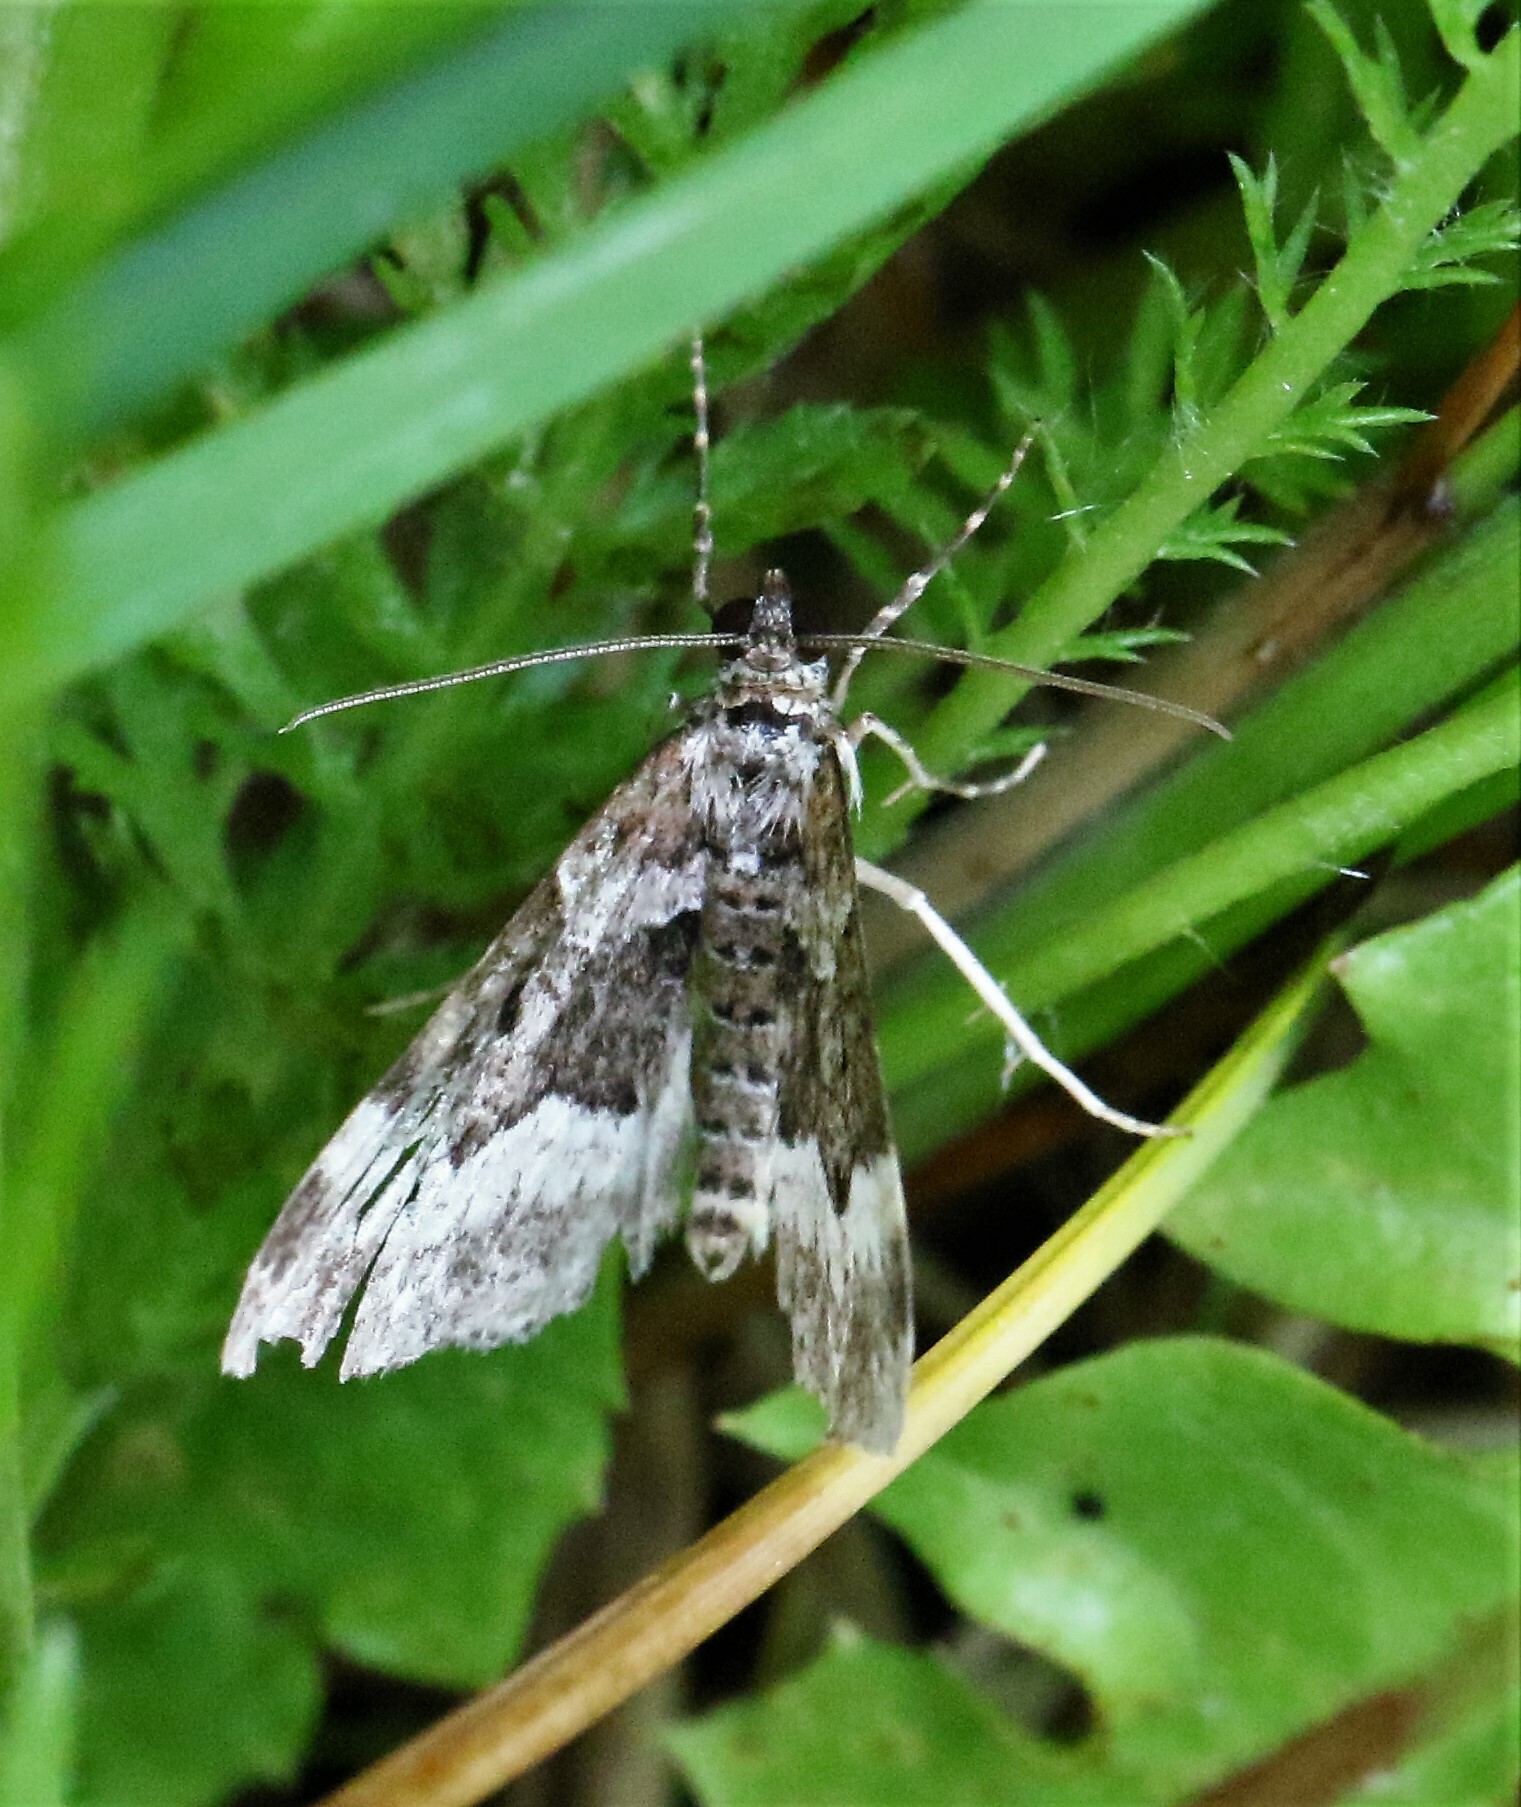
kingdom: Animalia
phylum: Arthropoda
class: Insecta
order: Lepidoptera
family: Geometridae
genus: Euphyia
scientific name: Euphyia intermediata
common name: Sharp-angled carpet
